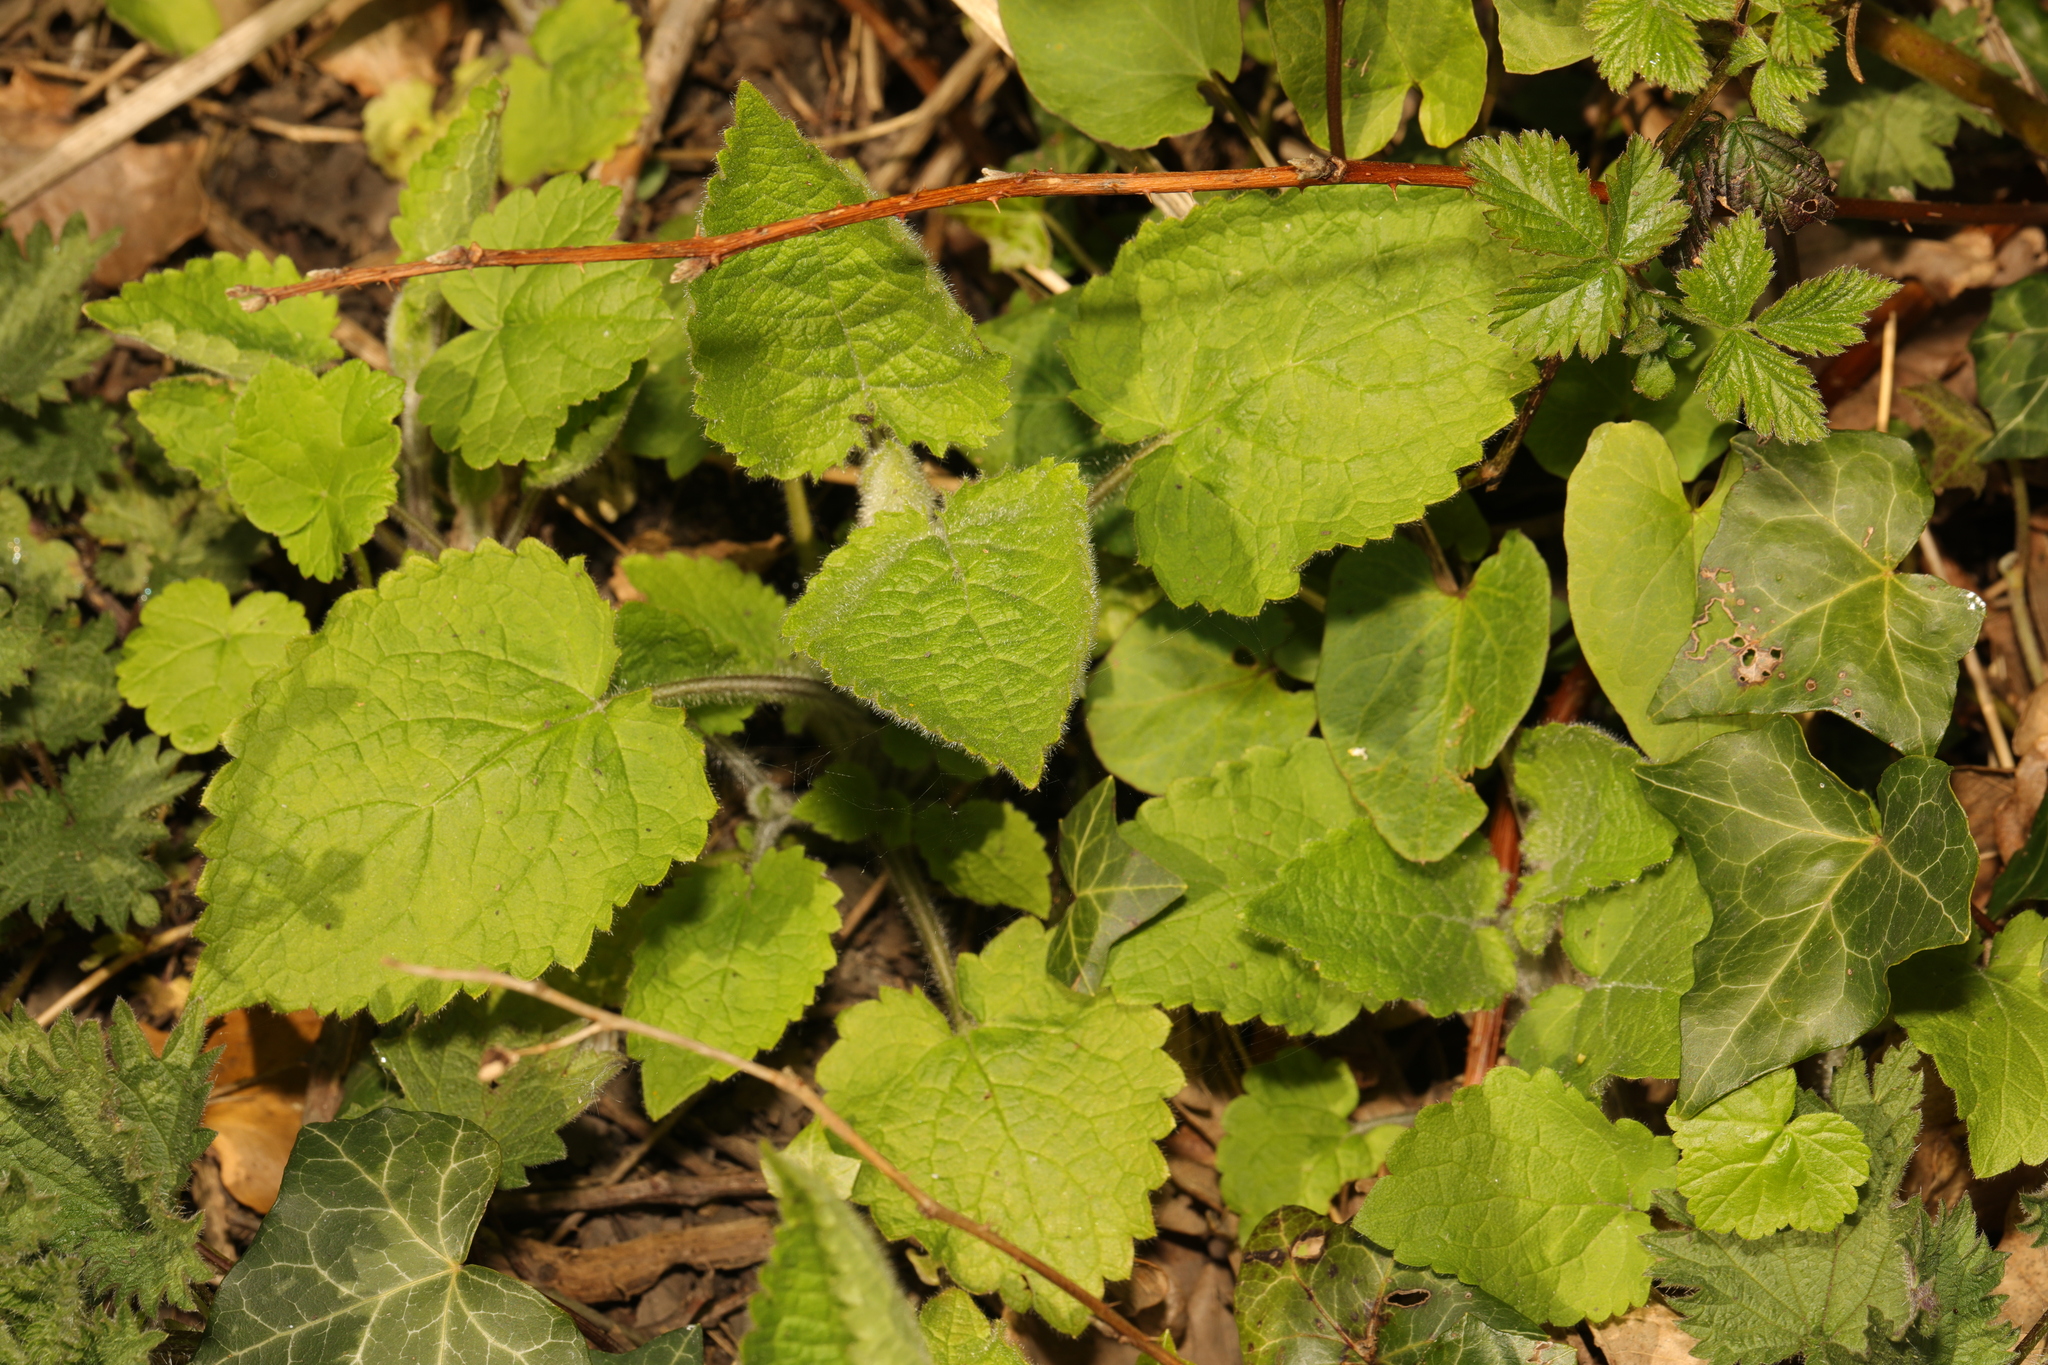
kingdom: Plantae
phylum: Tracheophyta
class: Magnoliopsida
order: Lamiales
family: Lamiaceae
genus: Stachys
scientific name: Stachys sylvatica
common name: Hedge woundwort
